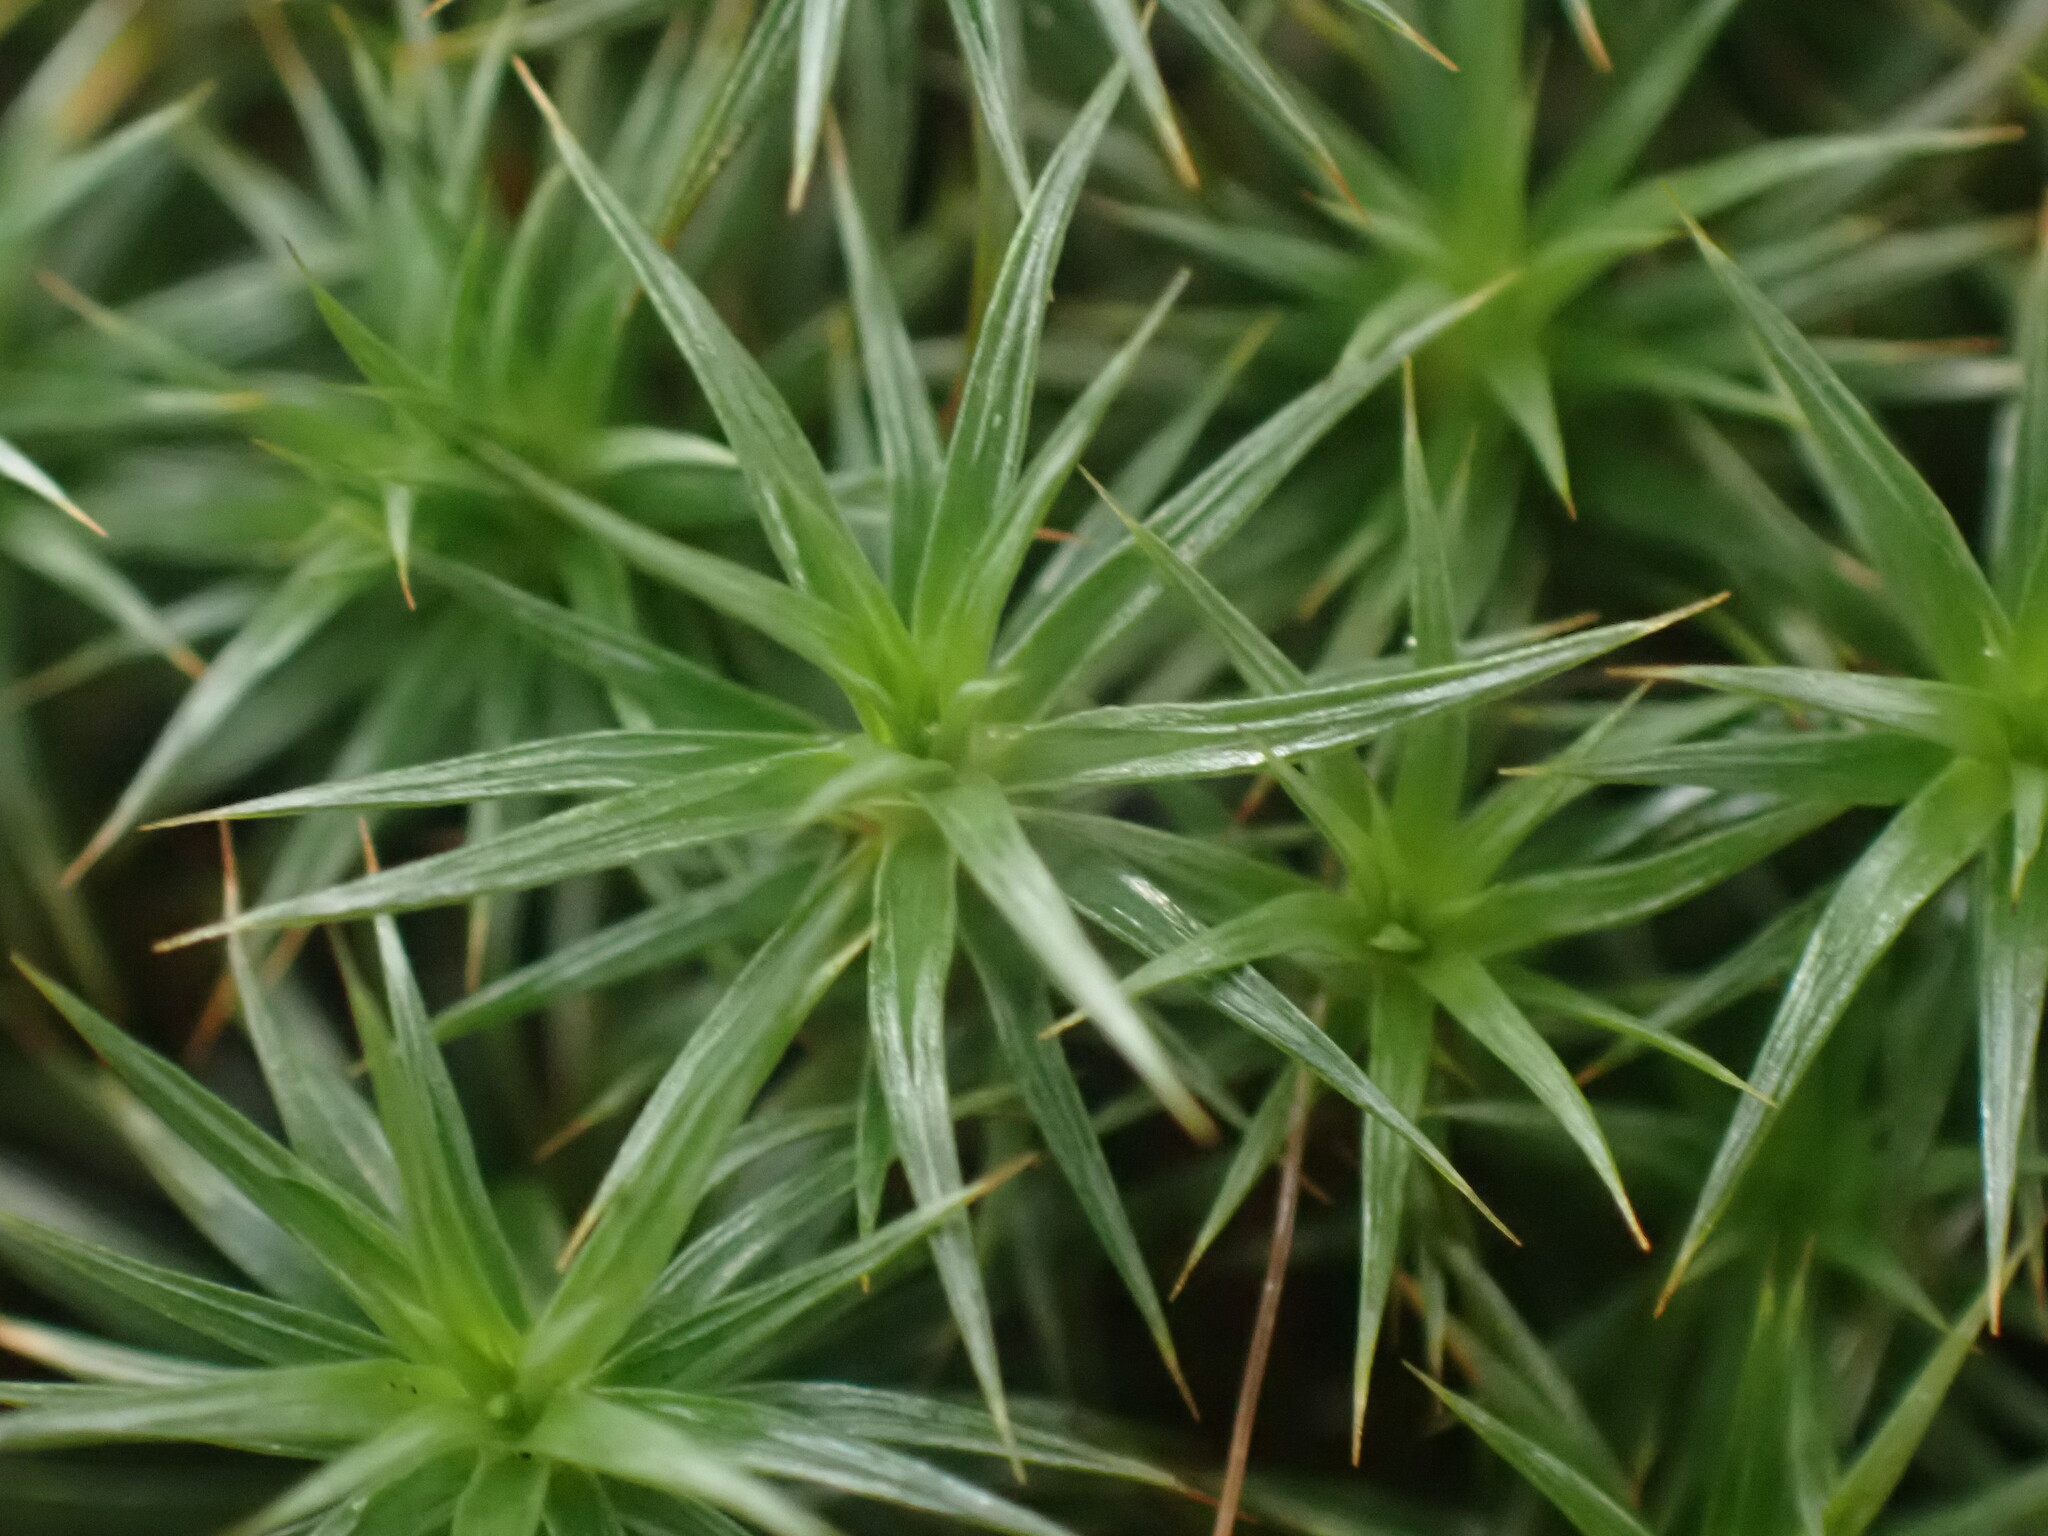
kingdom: Plantae
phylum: Bryophyta
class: Polytrichopsida
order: Polytrichales
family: Polytrichaceae
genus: Polytrichum
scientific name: Polytrichum juniperinum
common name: Juniper haircap moss
